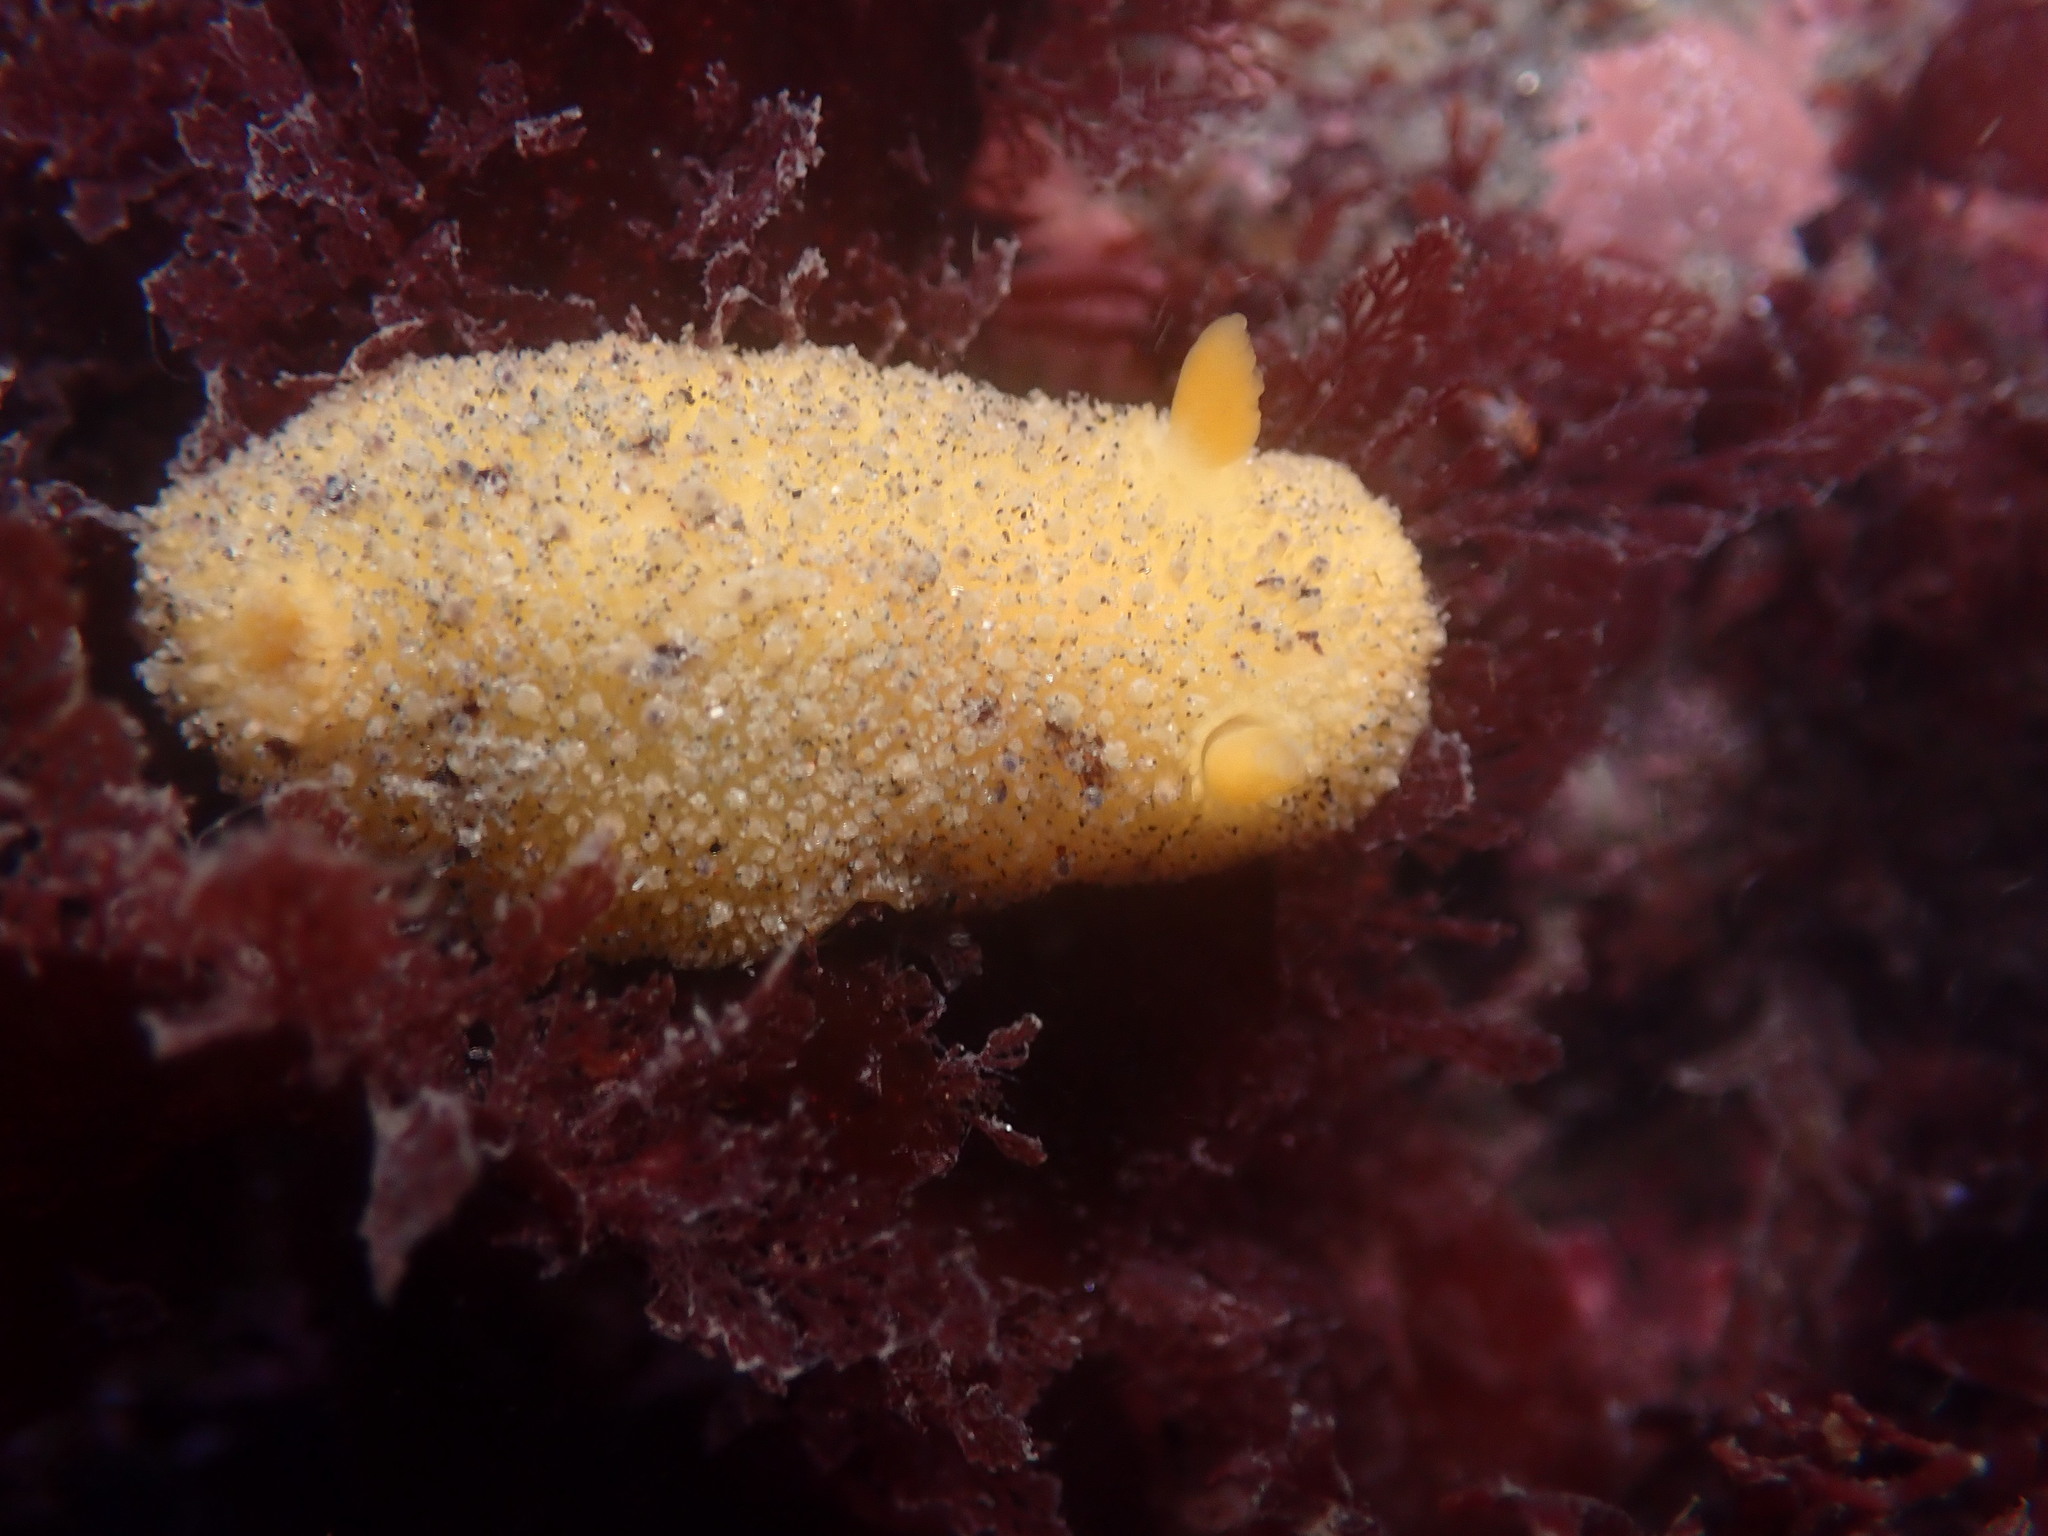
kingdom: Animalia
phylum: Mollusca
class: Gastropoda
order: Nudibranchia
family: Dorididae
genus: Doris
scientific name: Doris montereyensis
